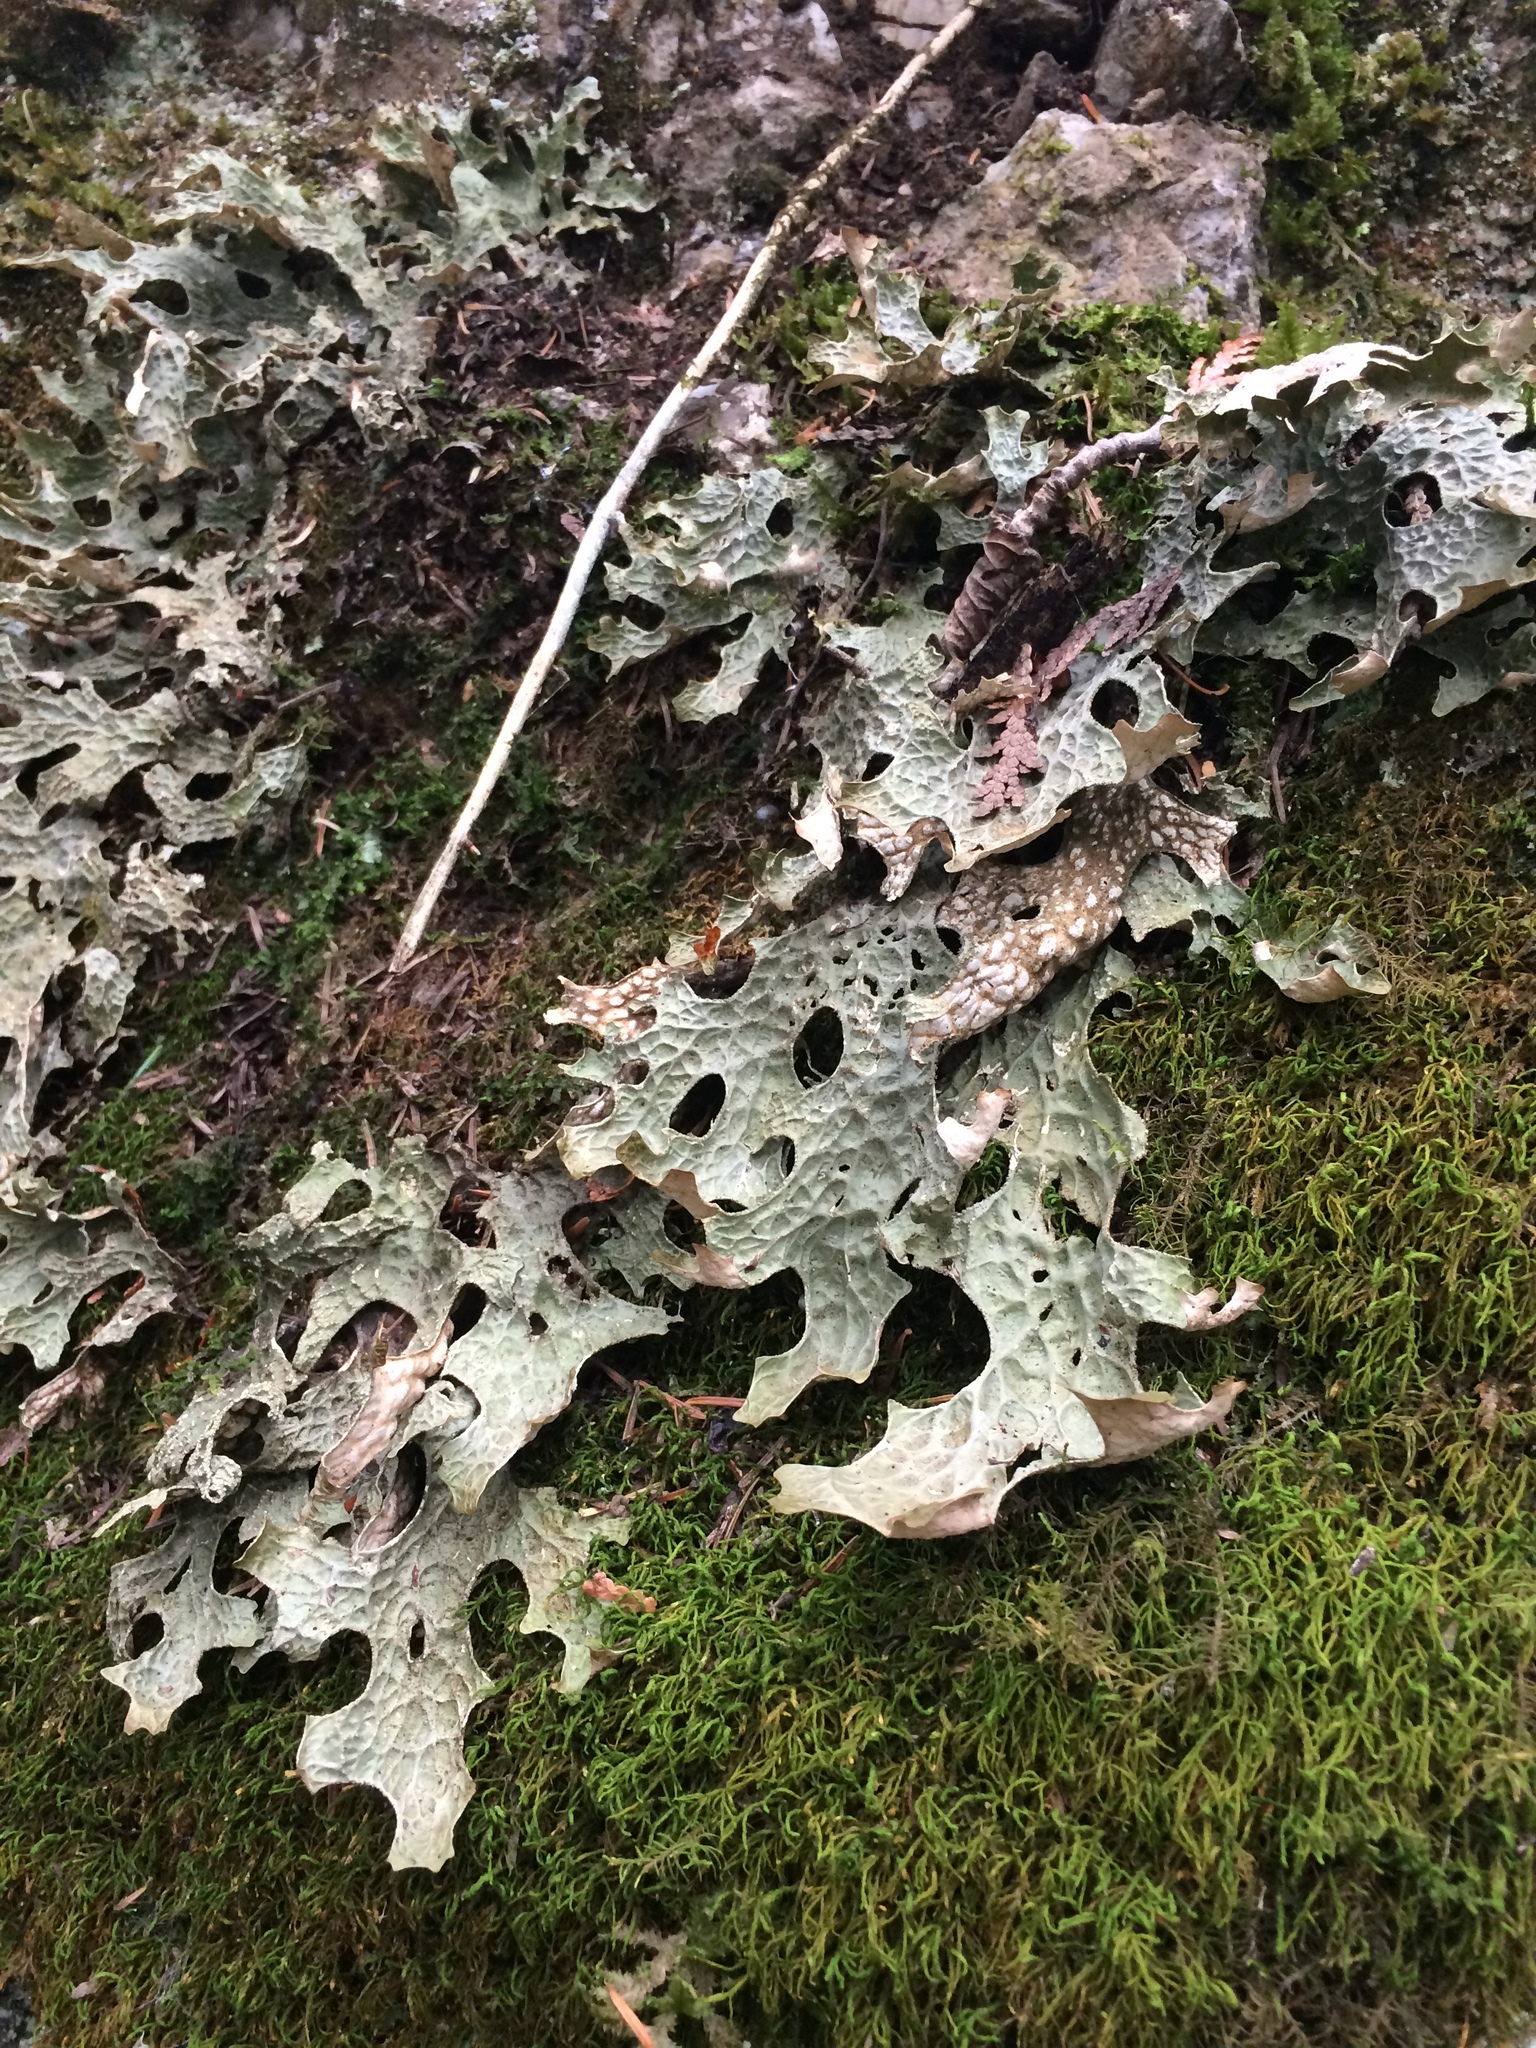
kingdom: Fungi
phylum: Ascomycota
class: Lecanoromycetes
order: Peltigerales
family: Lobariaceae
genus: Lobaria
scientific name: Lobaria pulmonaria
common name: Lungwort
